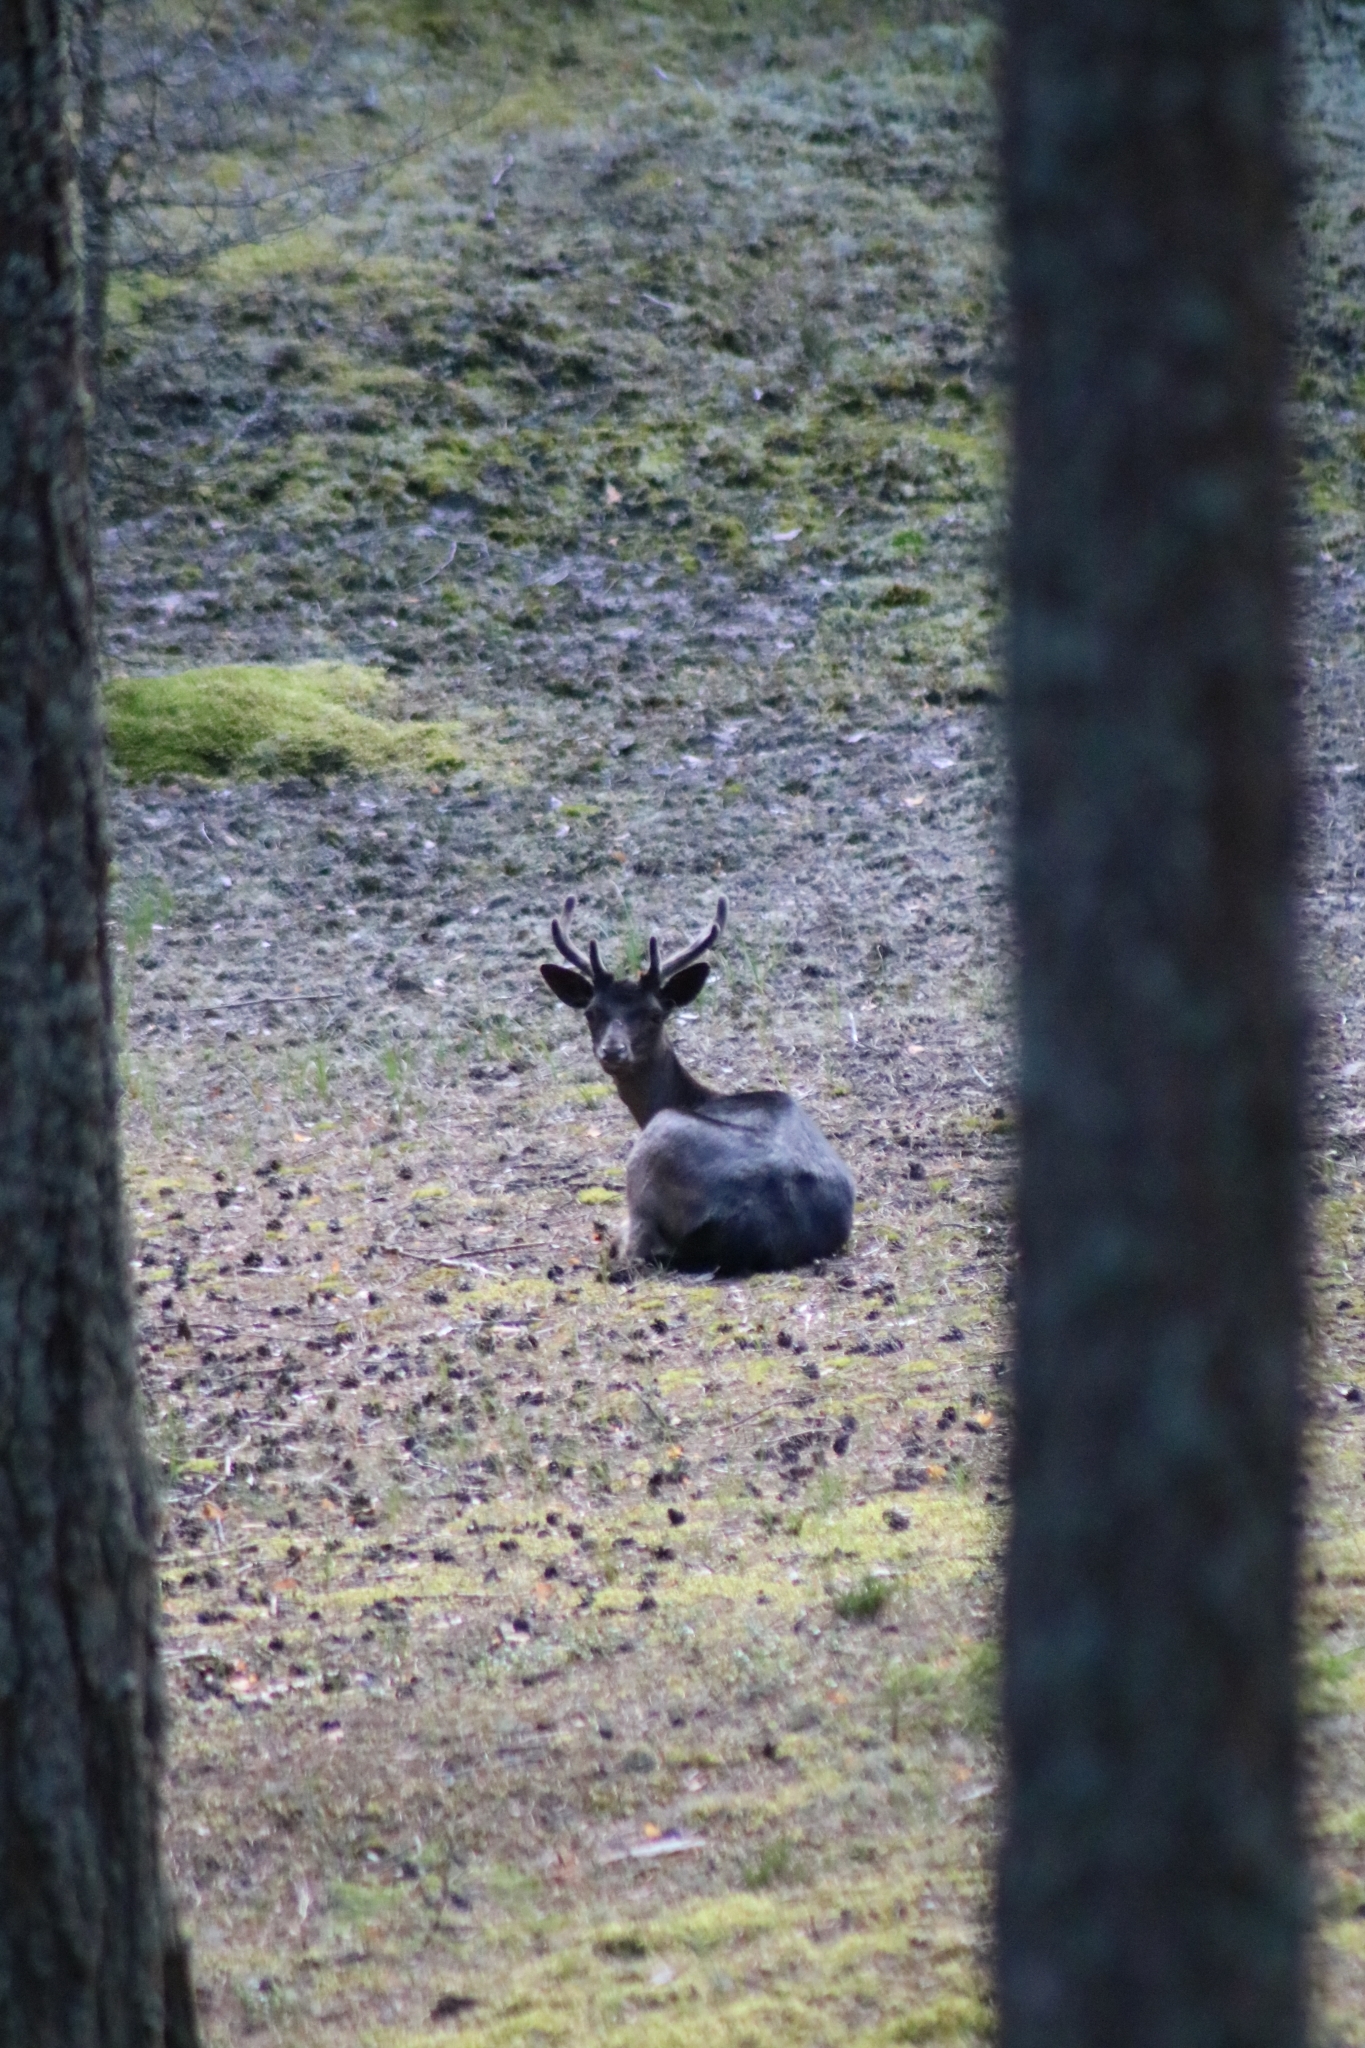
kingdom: Animalia
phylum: Chordata
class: Mammalia
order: Artiodactyla
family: Cervidae
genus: Dama
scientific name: Dama dama
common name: Fallow deer
